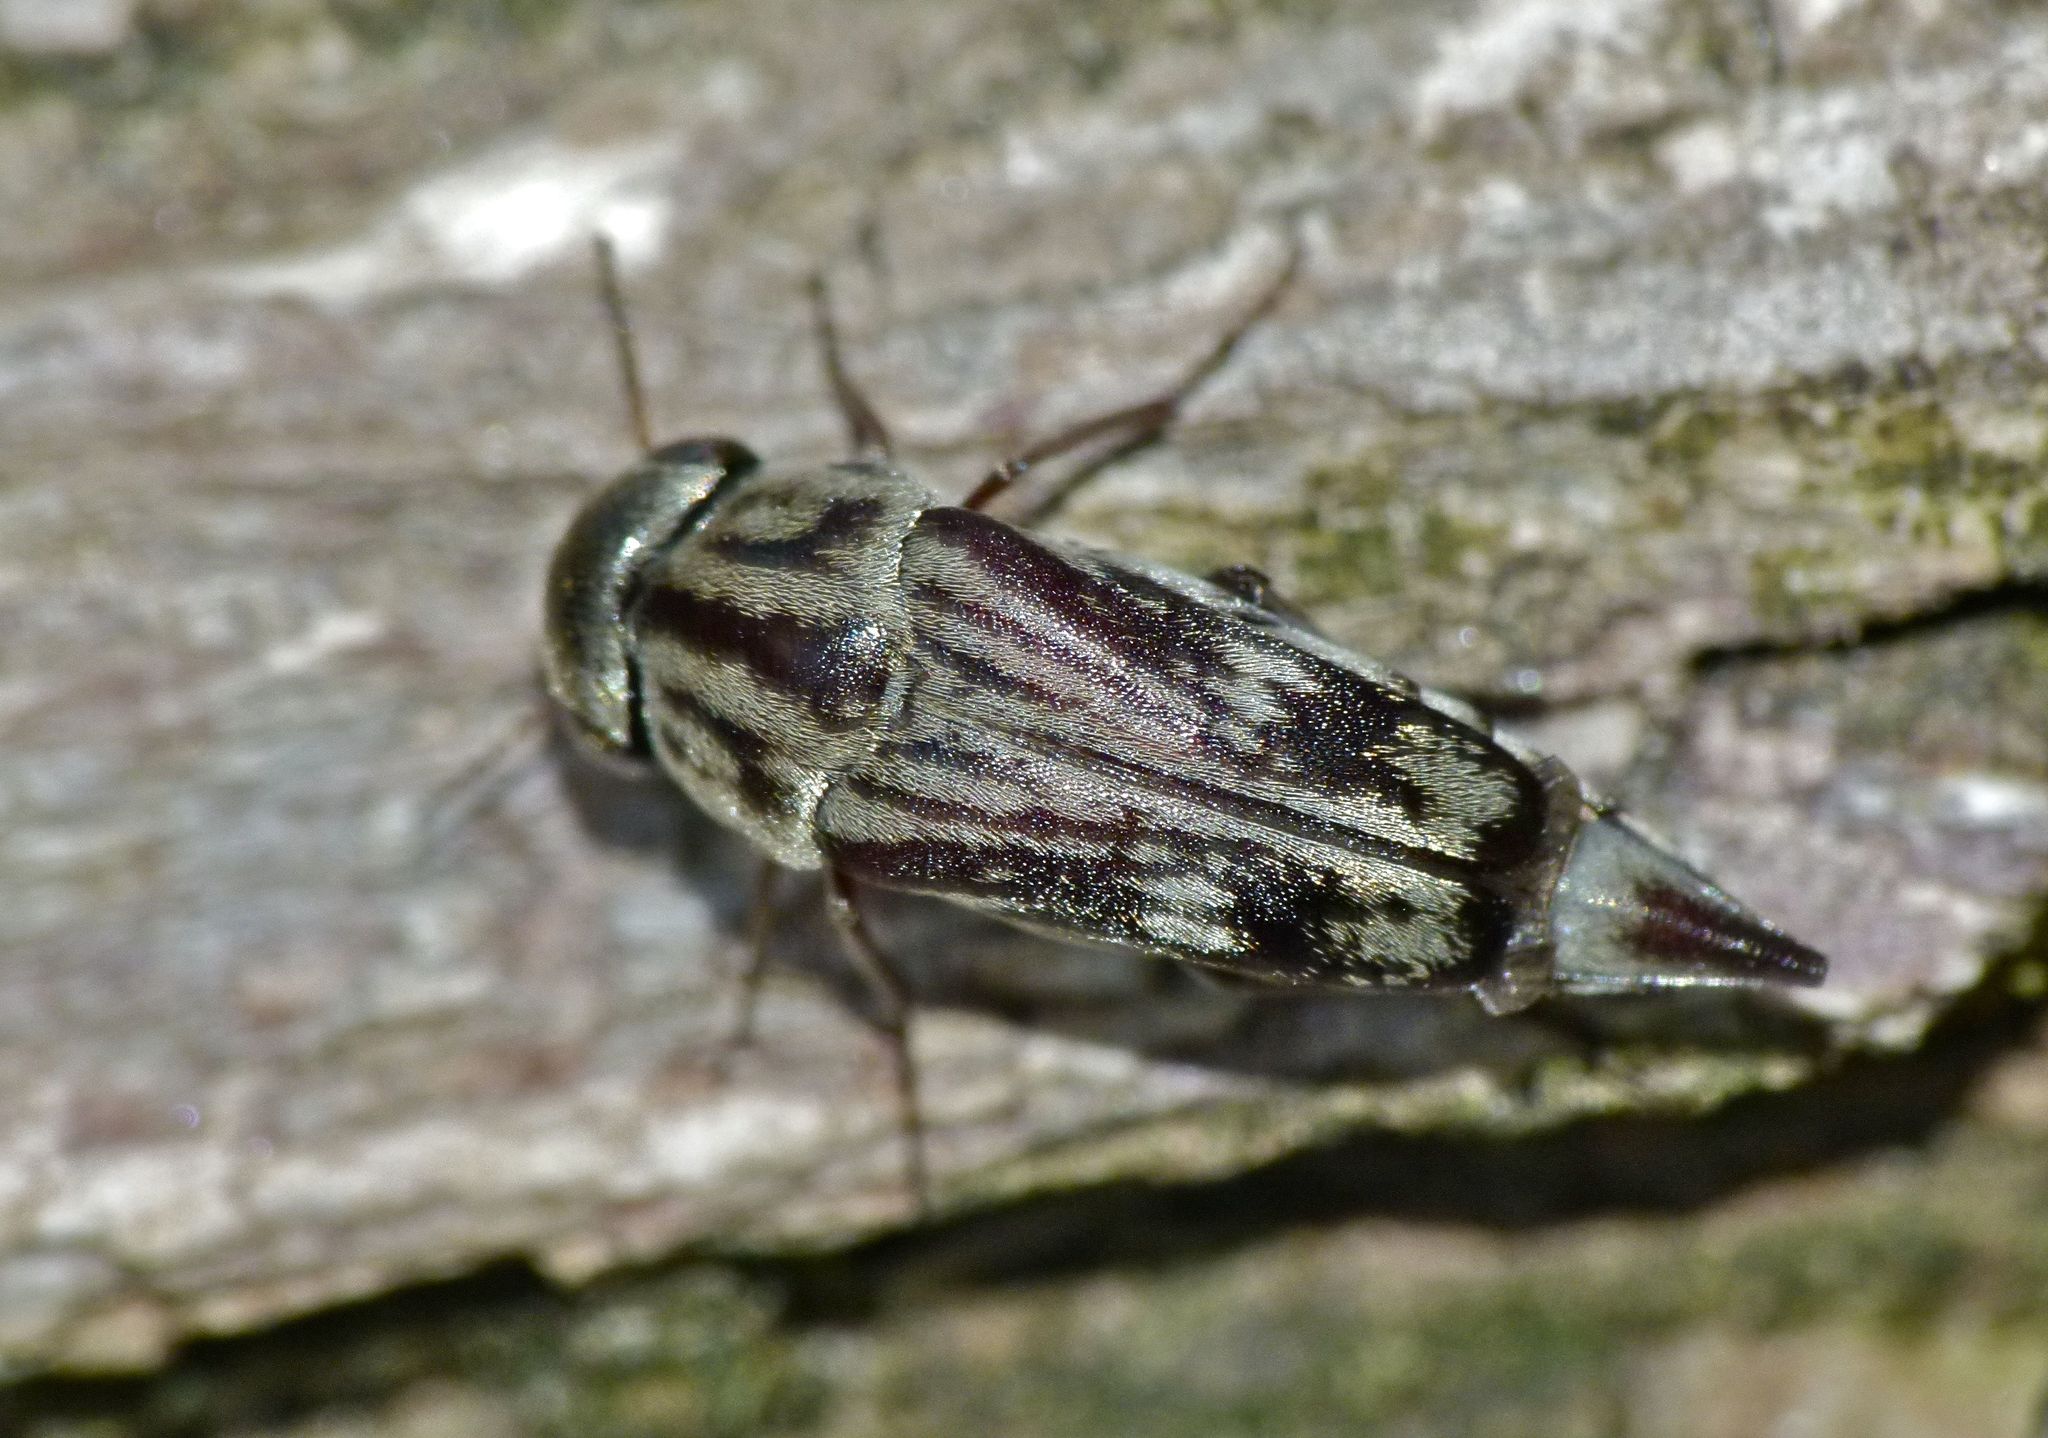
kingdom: Animalia
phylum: Arthropoda
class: Insecta
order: Coleoptera
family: Mordellidae
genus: Tomoxia
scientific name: Tomoxia lineella
